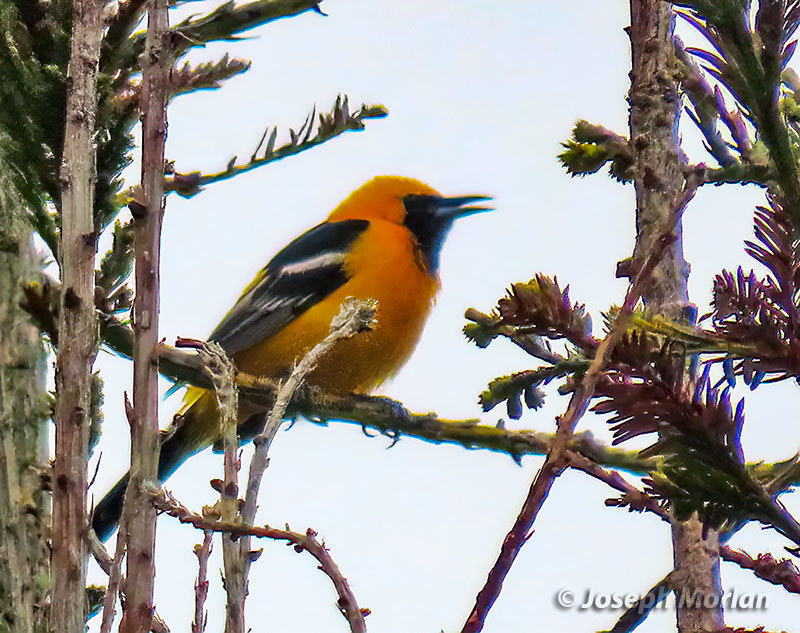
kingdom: Animalia
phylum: Chordata
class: Aves
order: Passeriformes
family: Icteridae
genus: Icterus
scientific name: Icterus cucullatus
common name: Hooded oriole
